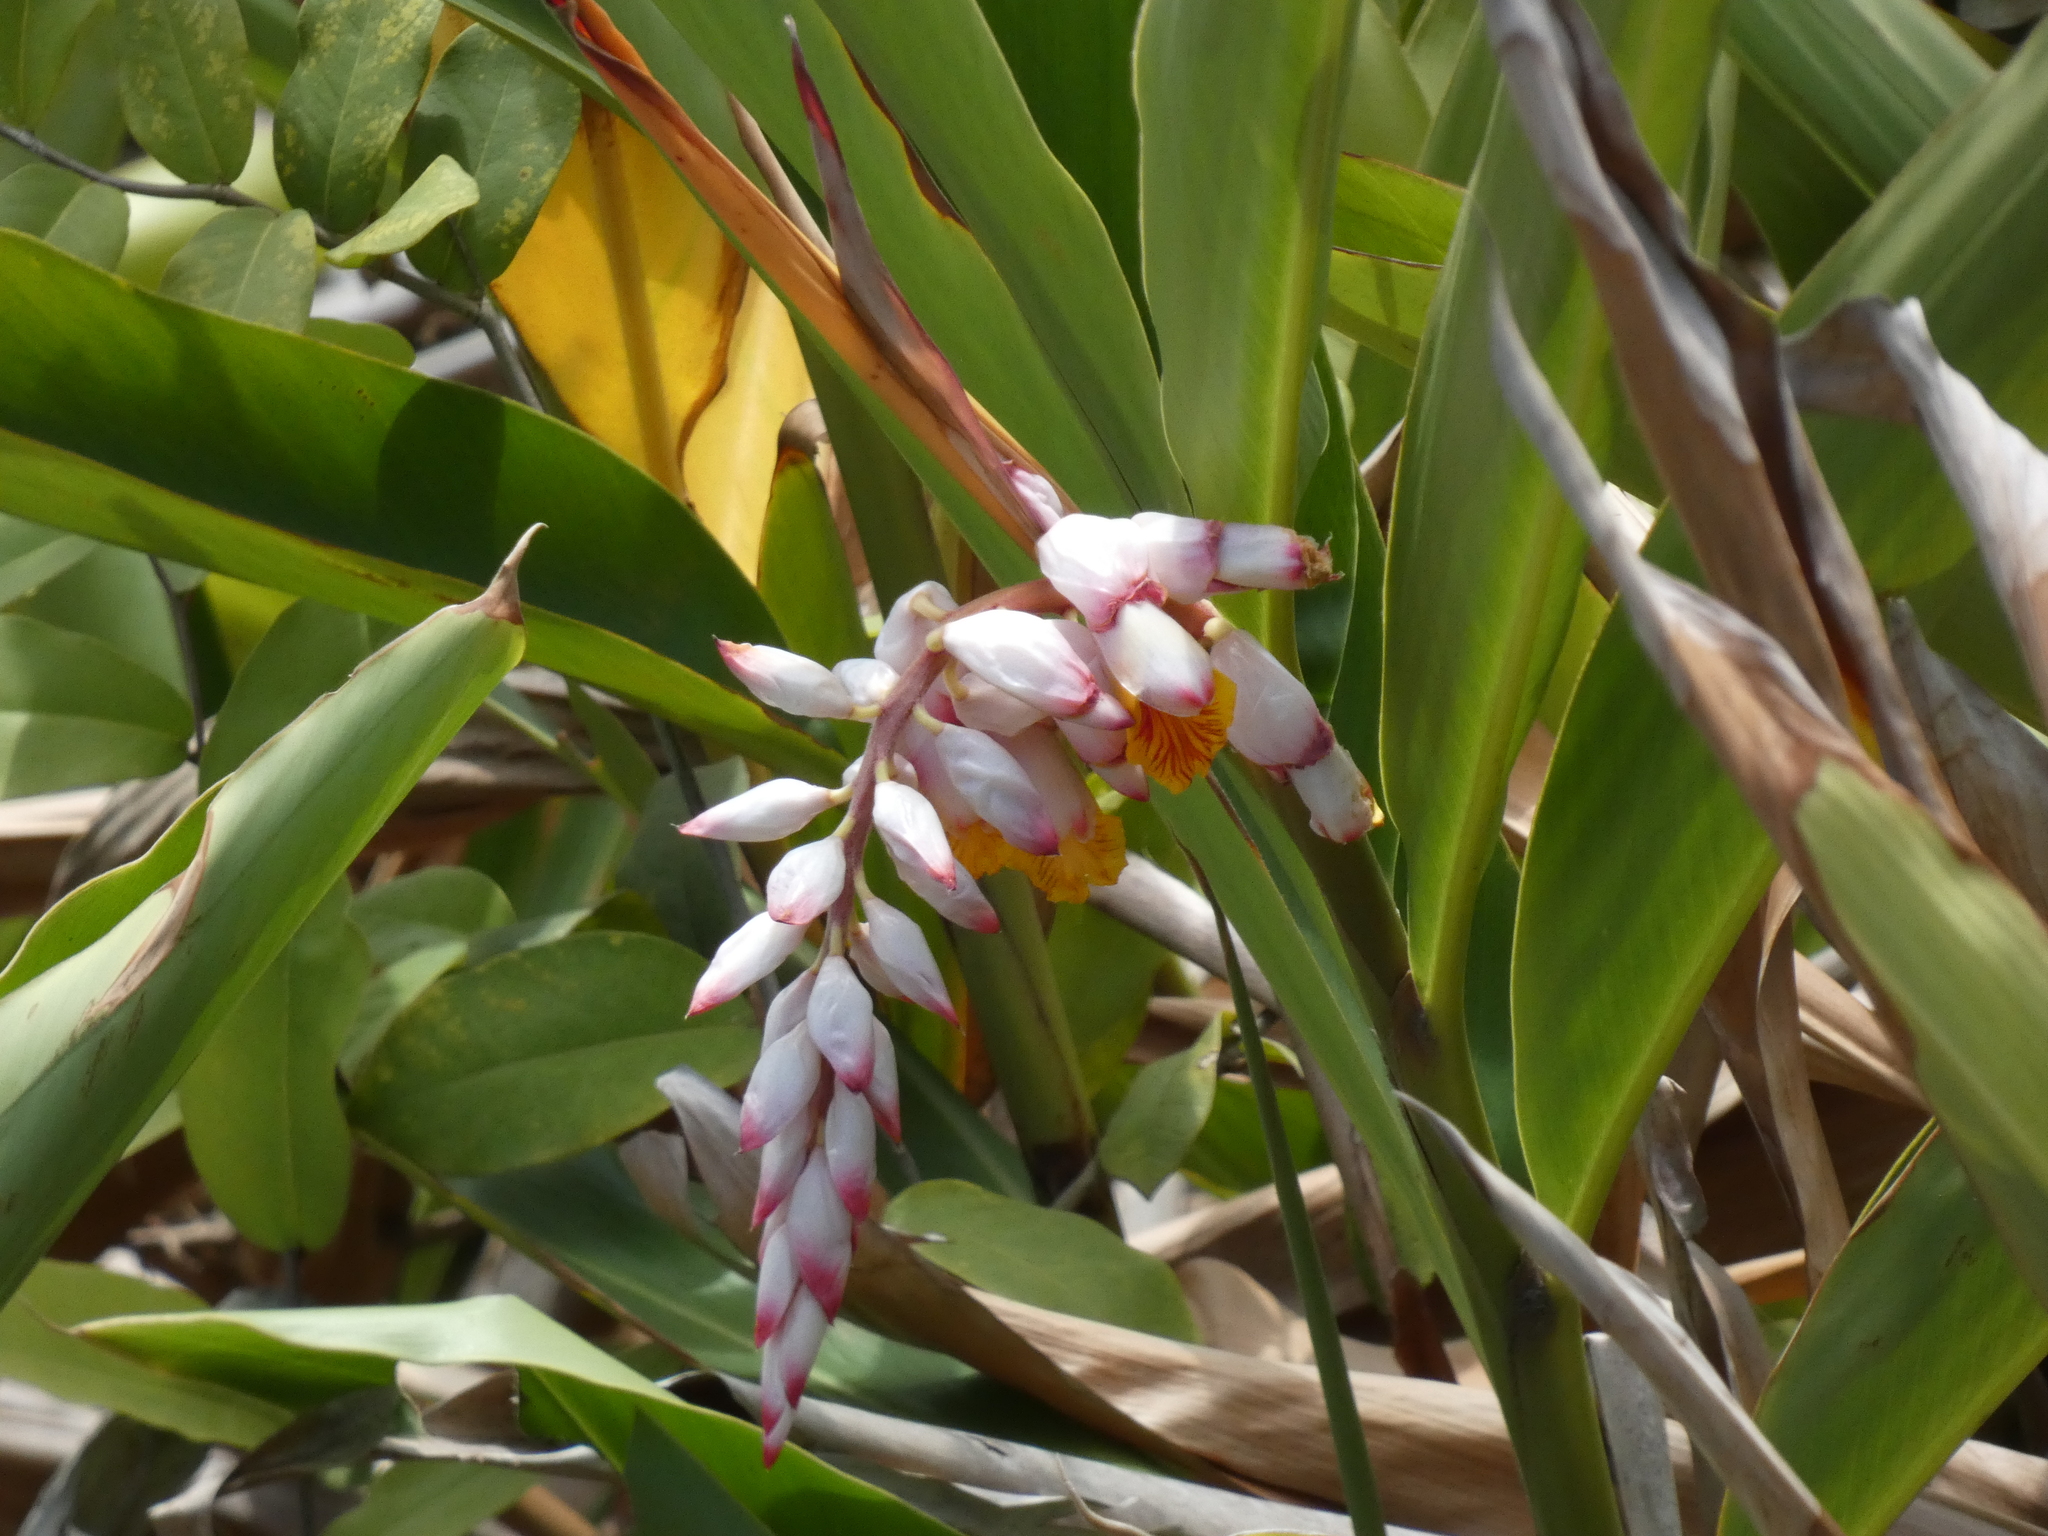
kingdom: Plantae
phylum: Tracheophyta
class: Liliopsida
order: Zingiberales
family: Zingiberaceae
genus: Alpinia
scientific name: Alpinia zerumbet
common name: Shellplant
